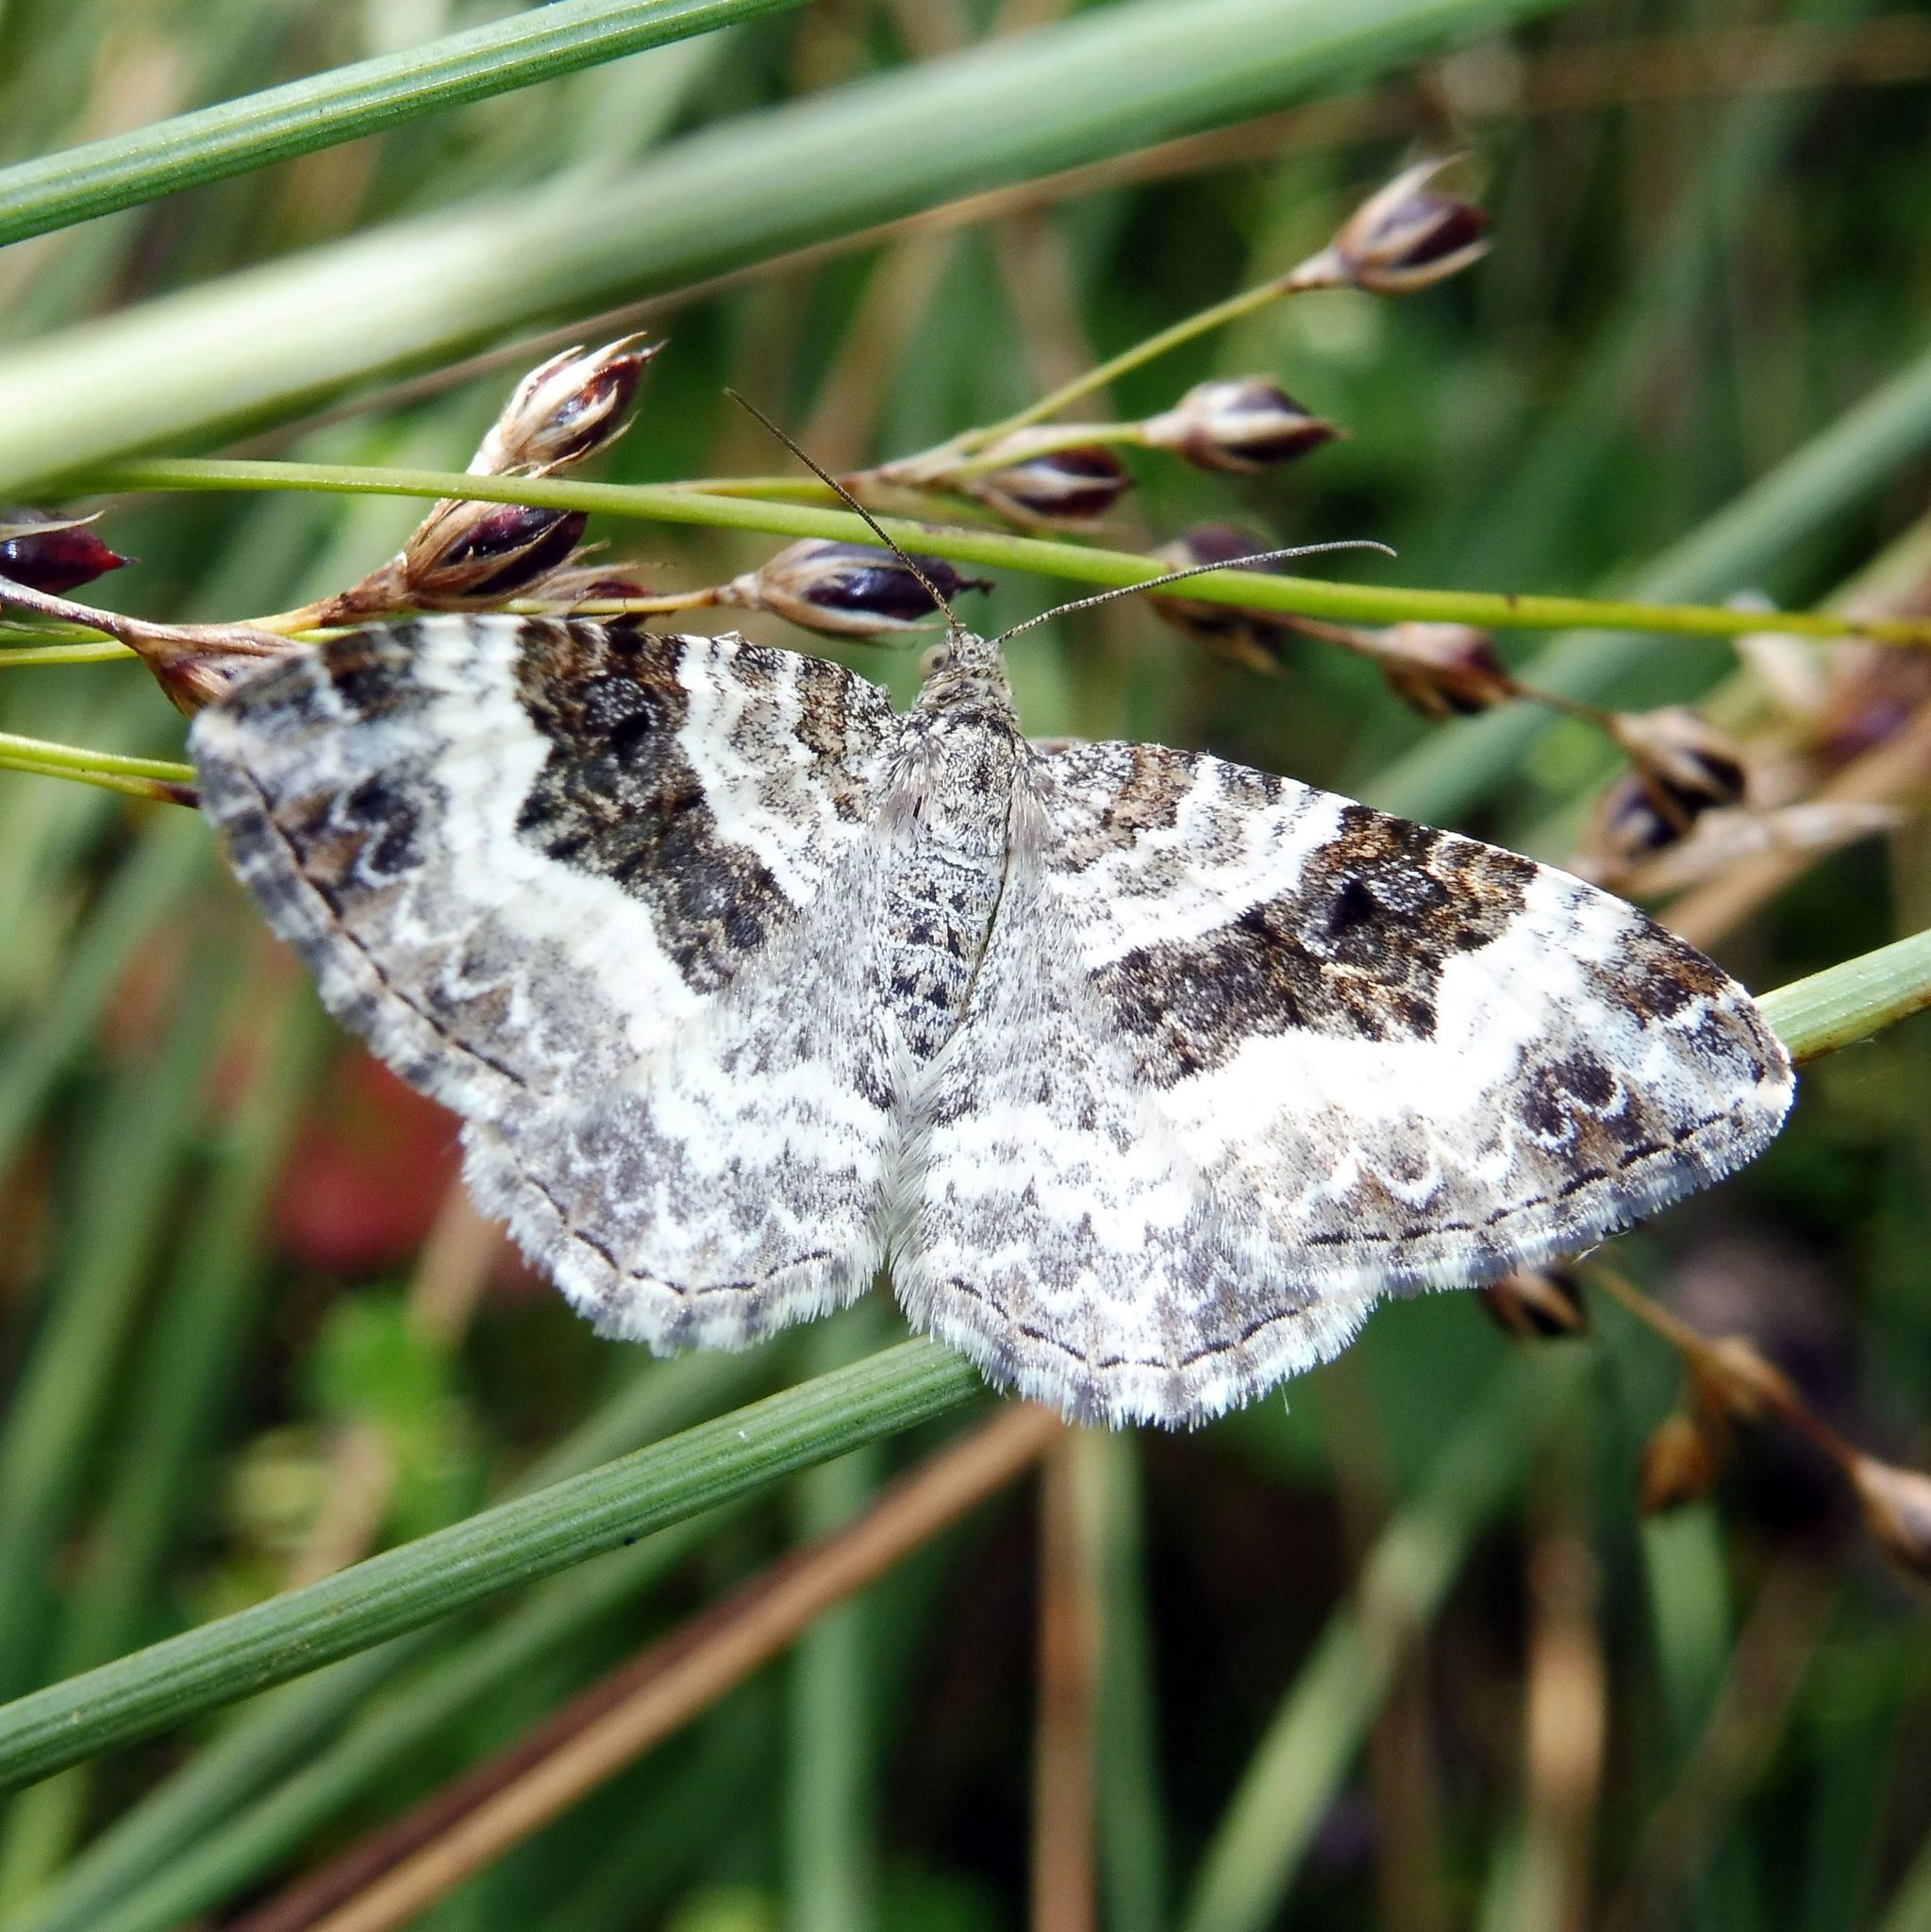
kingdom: Animalia
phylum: Arthropoda
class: Insecta
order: Lepidoptera
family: Geometridae
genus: Epirrhoe
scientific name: Epirrhoe alternata
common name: Common carpet
